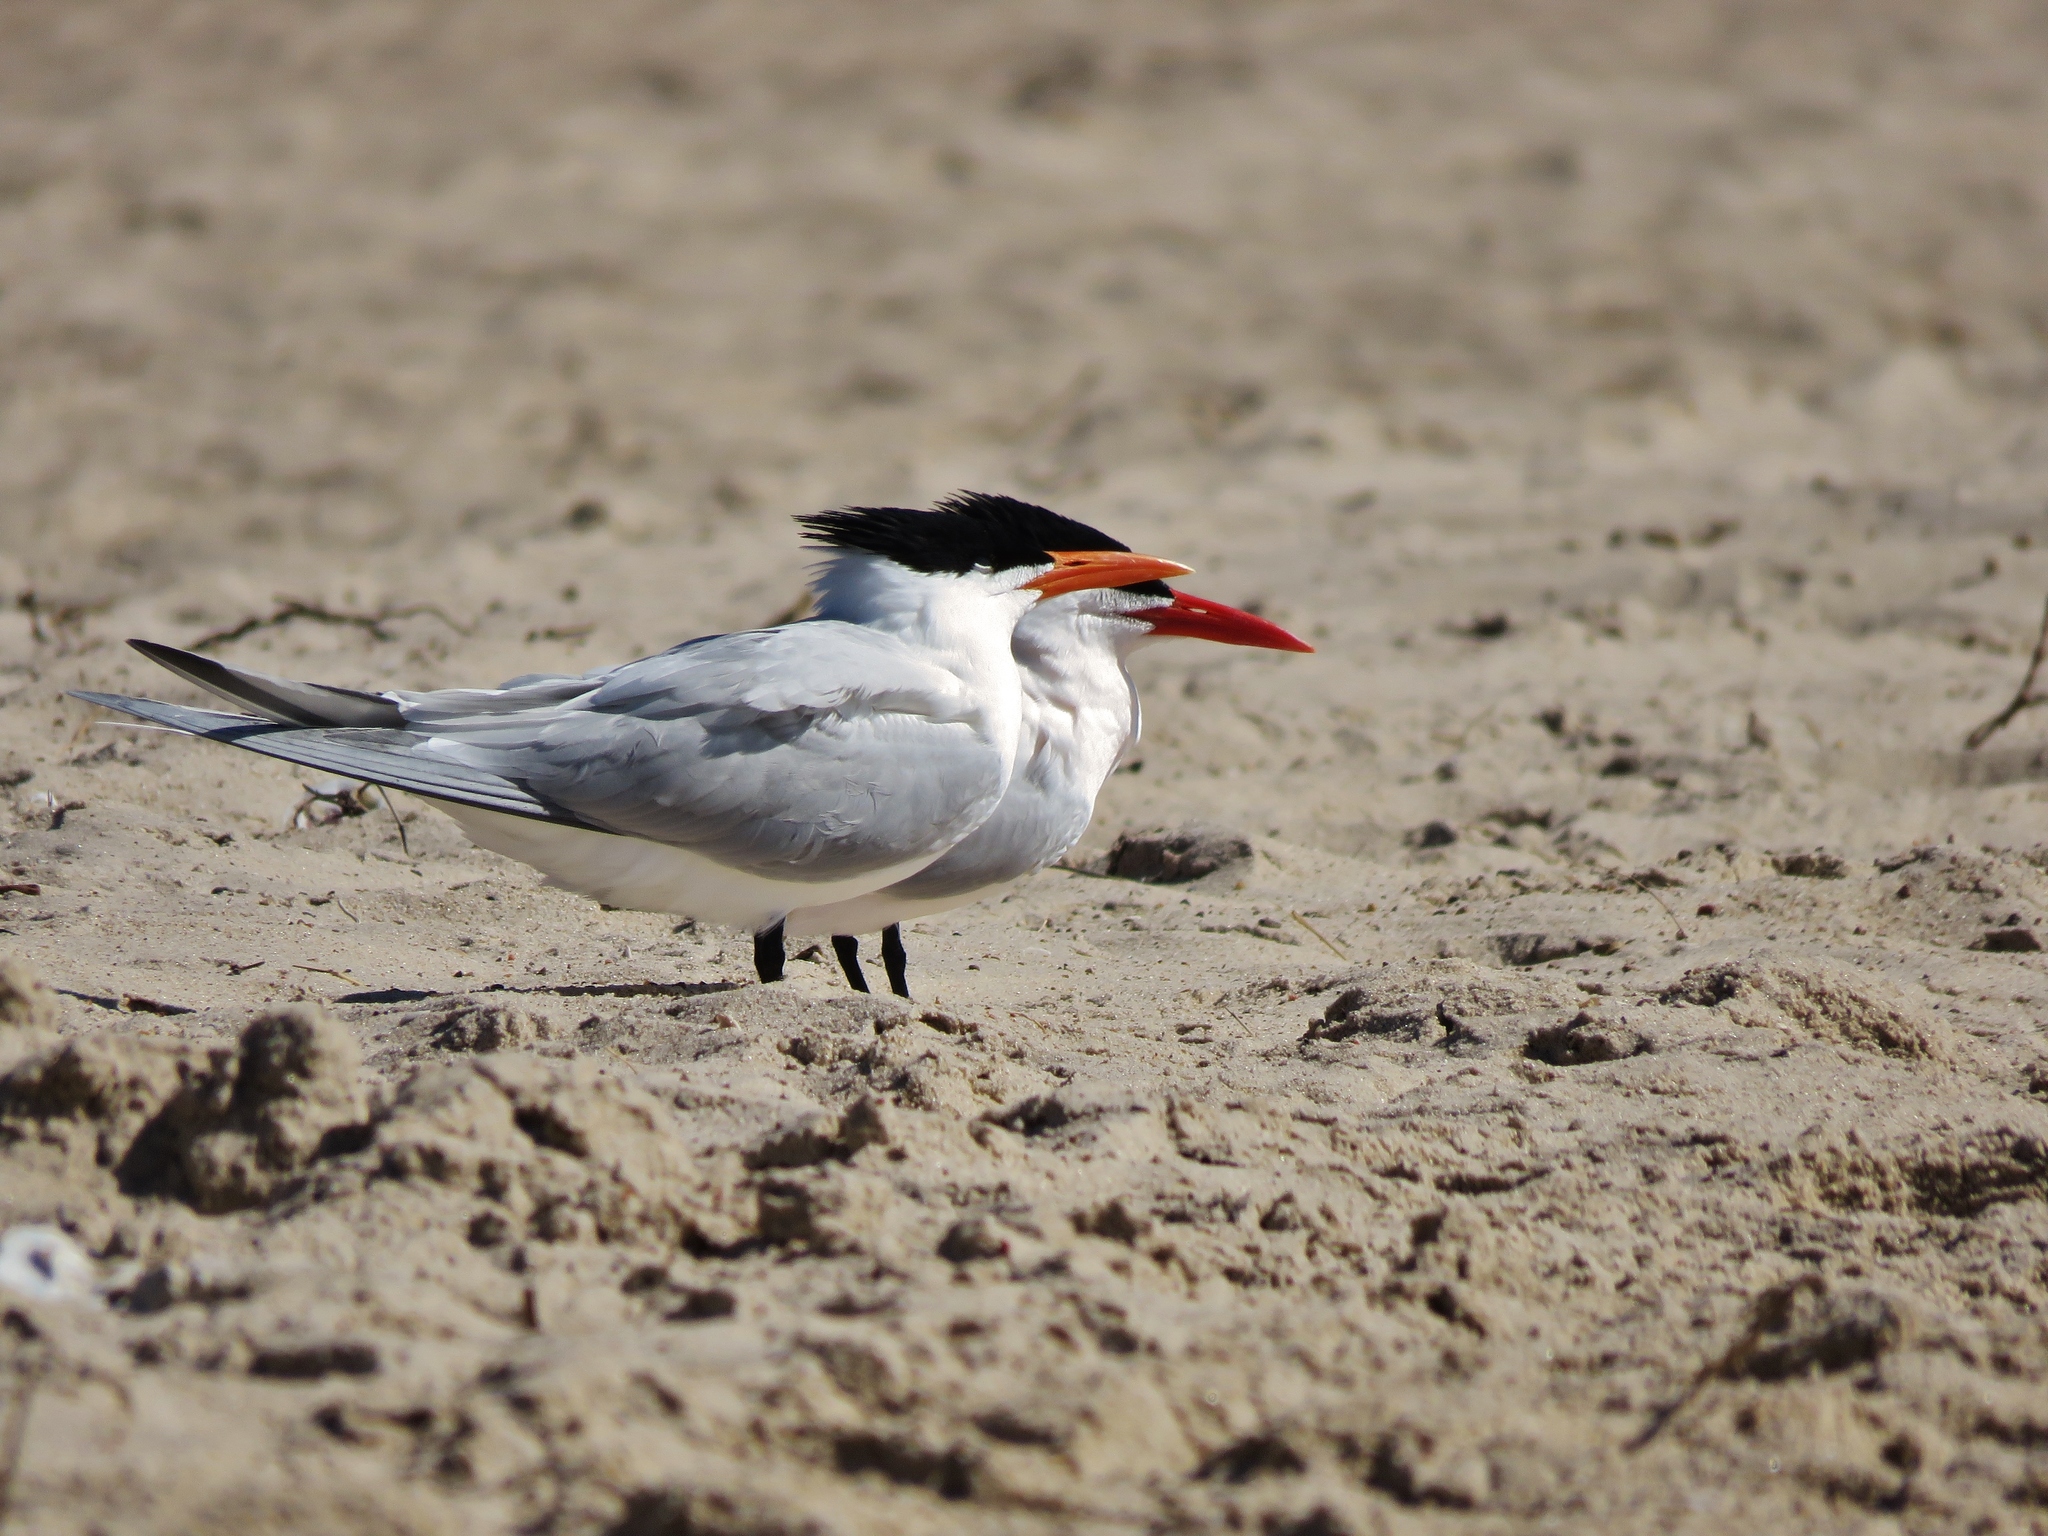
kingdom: Animalia
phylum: Chordata
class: Aves
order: Charadriiformes
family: Laridae
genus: Thalasseus
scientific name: Thalasseus maximus
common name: Royal tern
